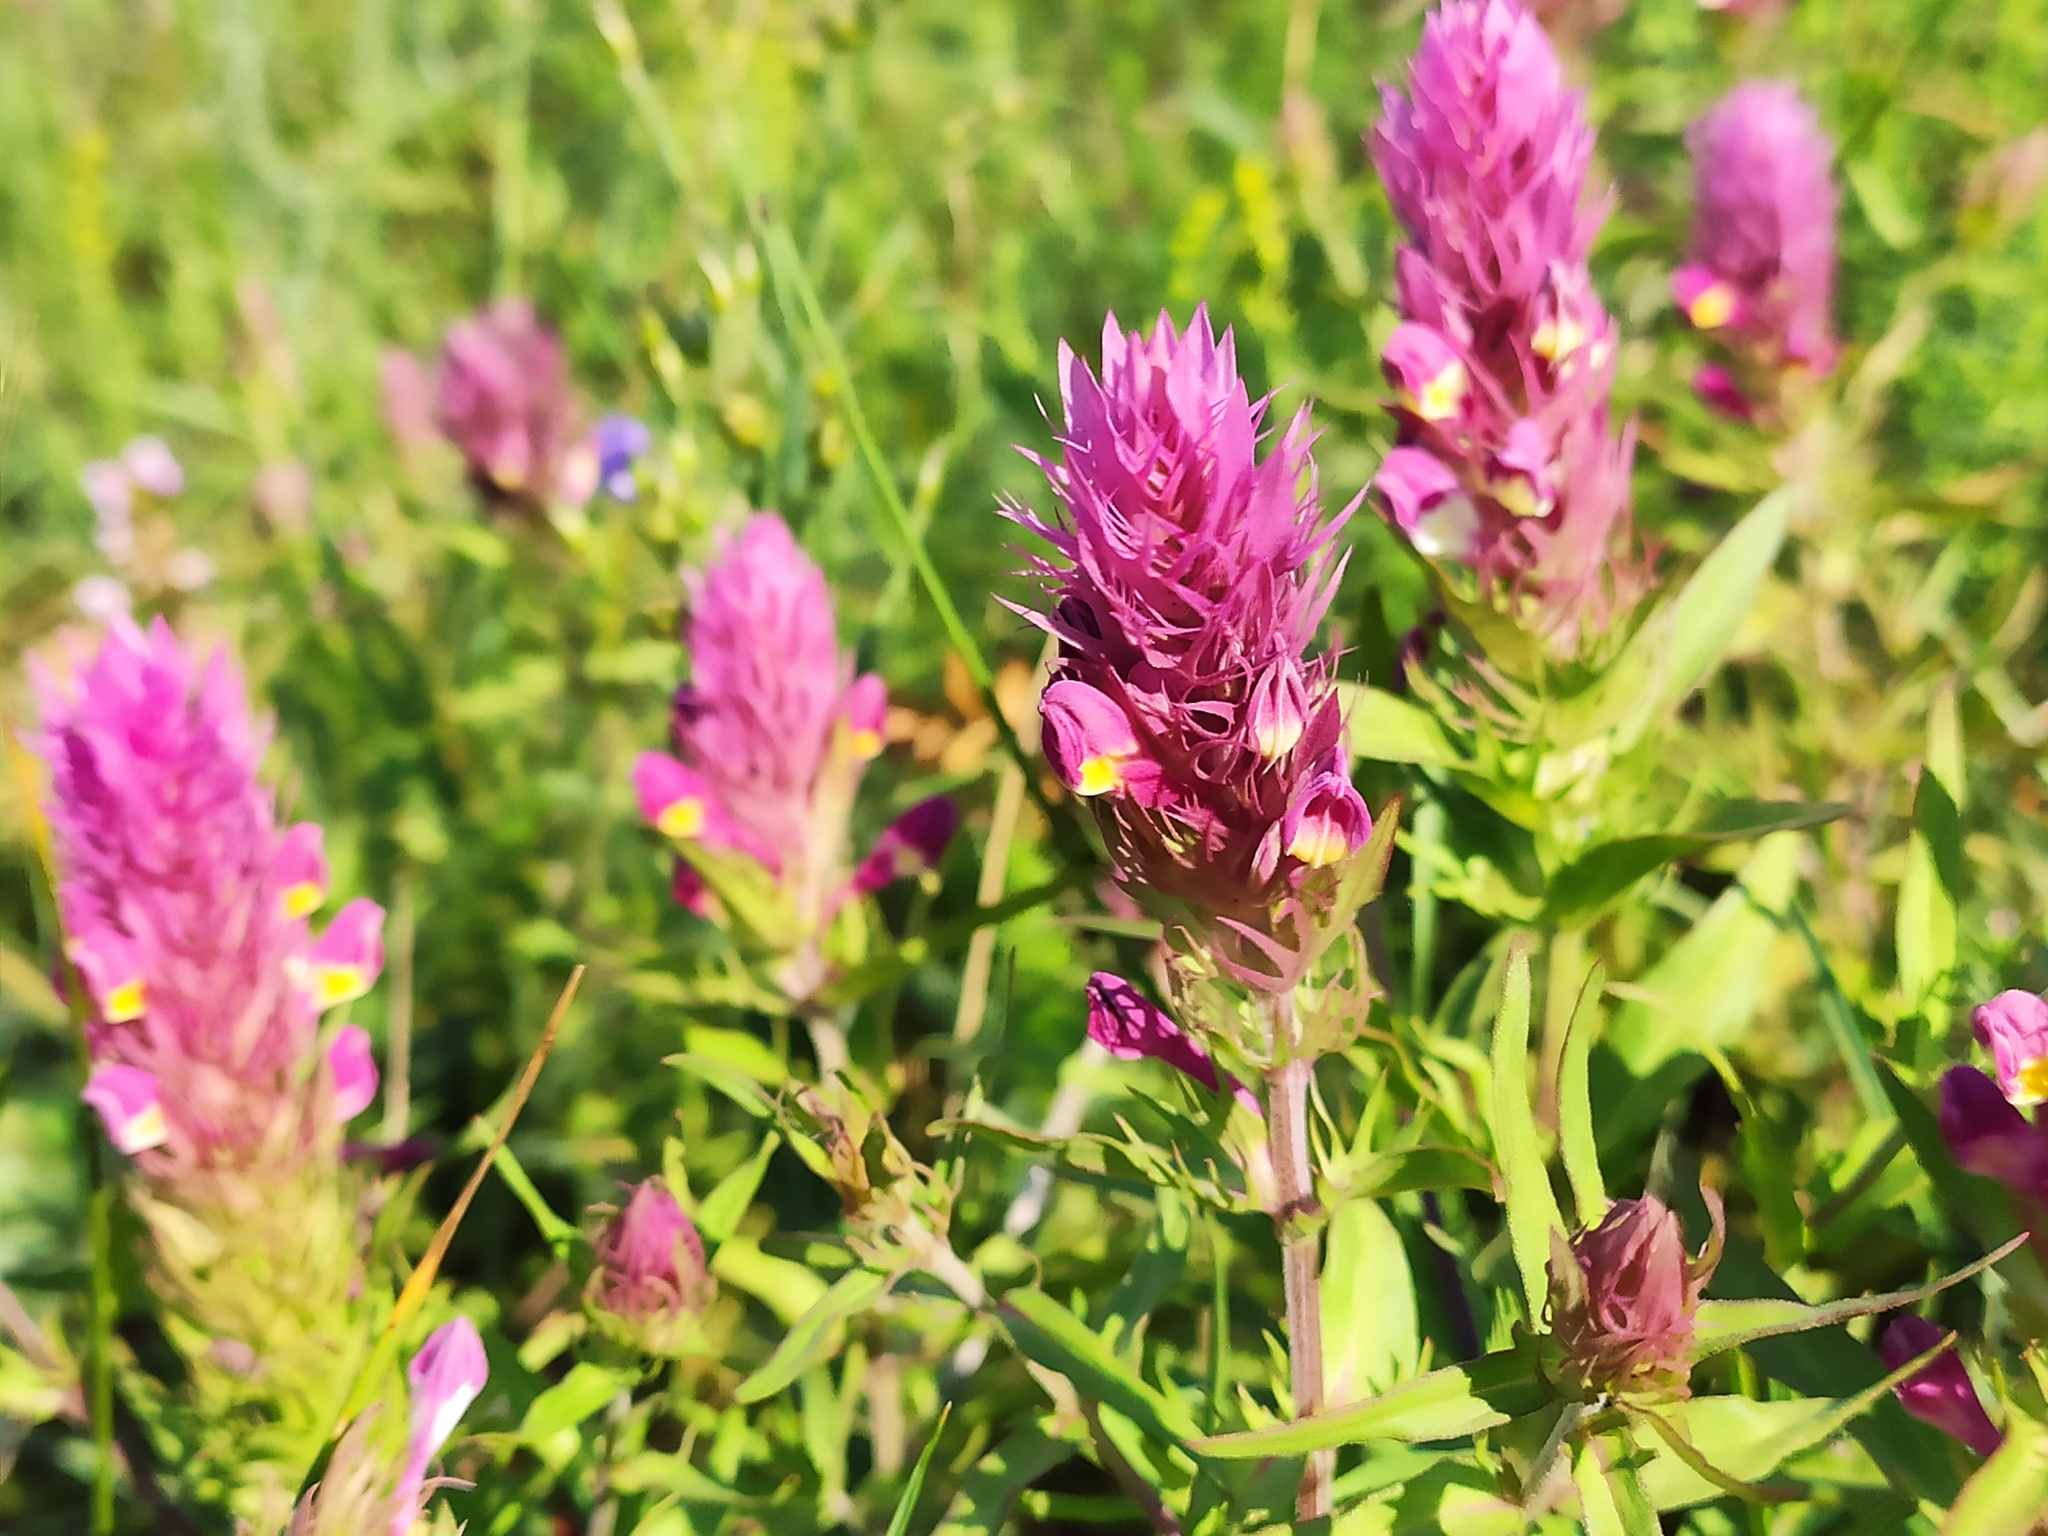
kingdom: Plantae
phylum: Tracheophyta
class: Magnoliopsida
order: Lamiales
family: Orobanchaceae
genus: Melampyrum
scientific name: Melampyrum arvense
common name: Field cow-wheat
